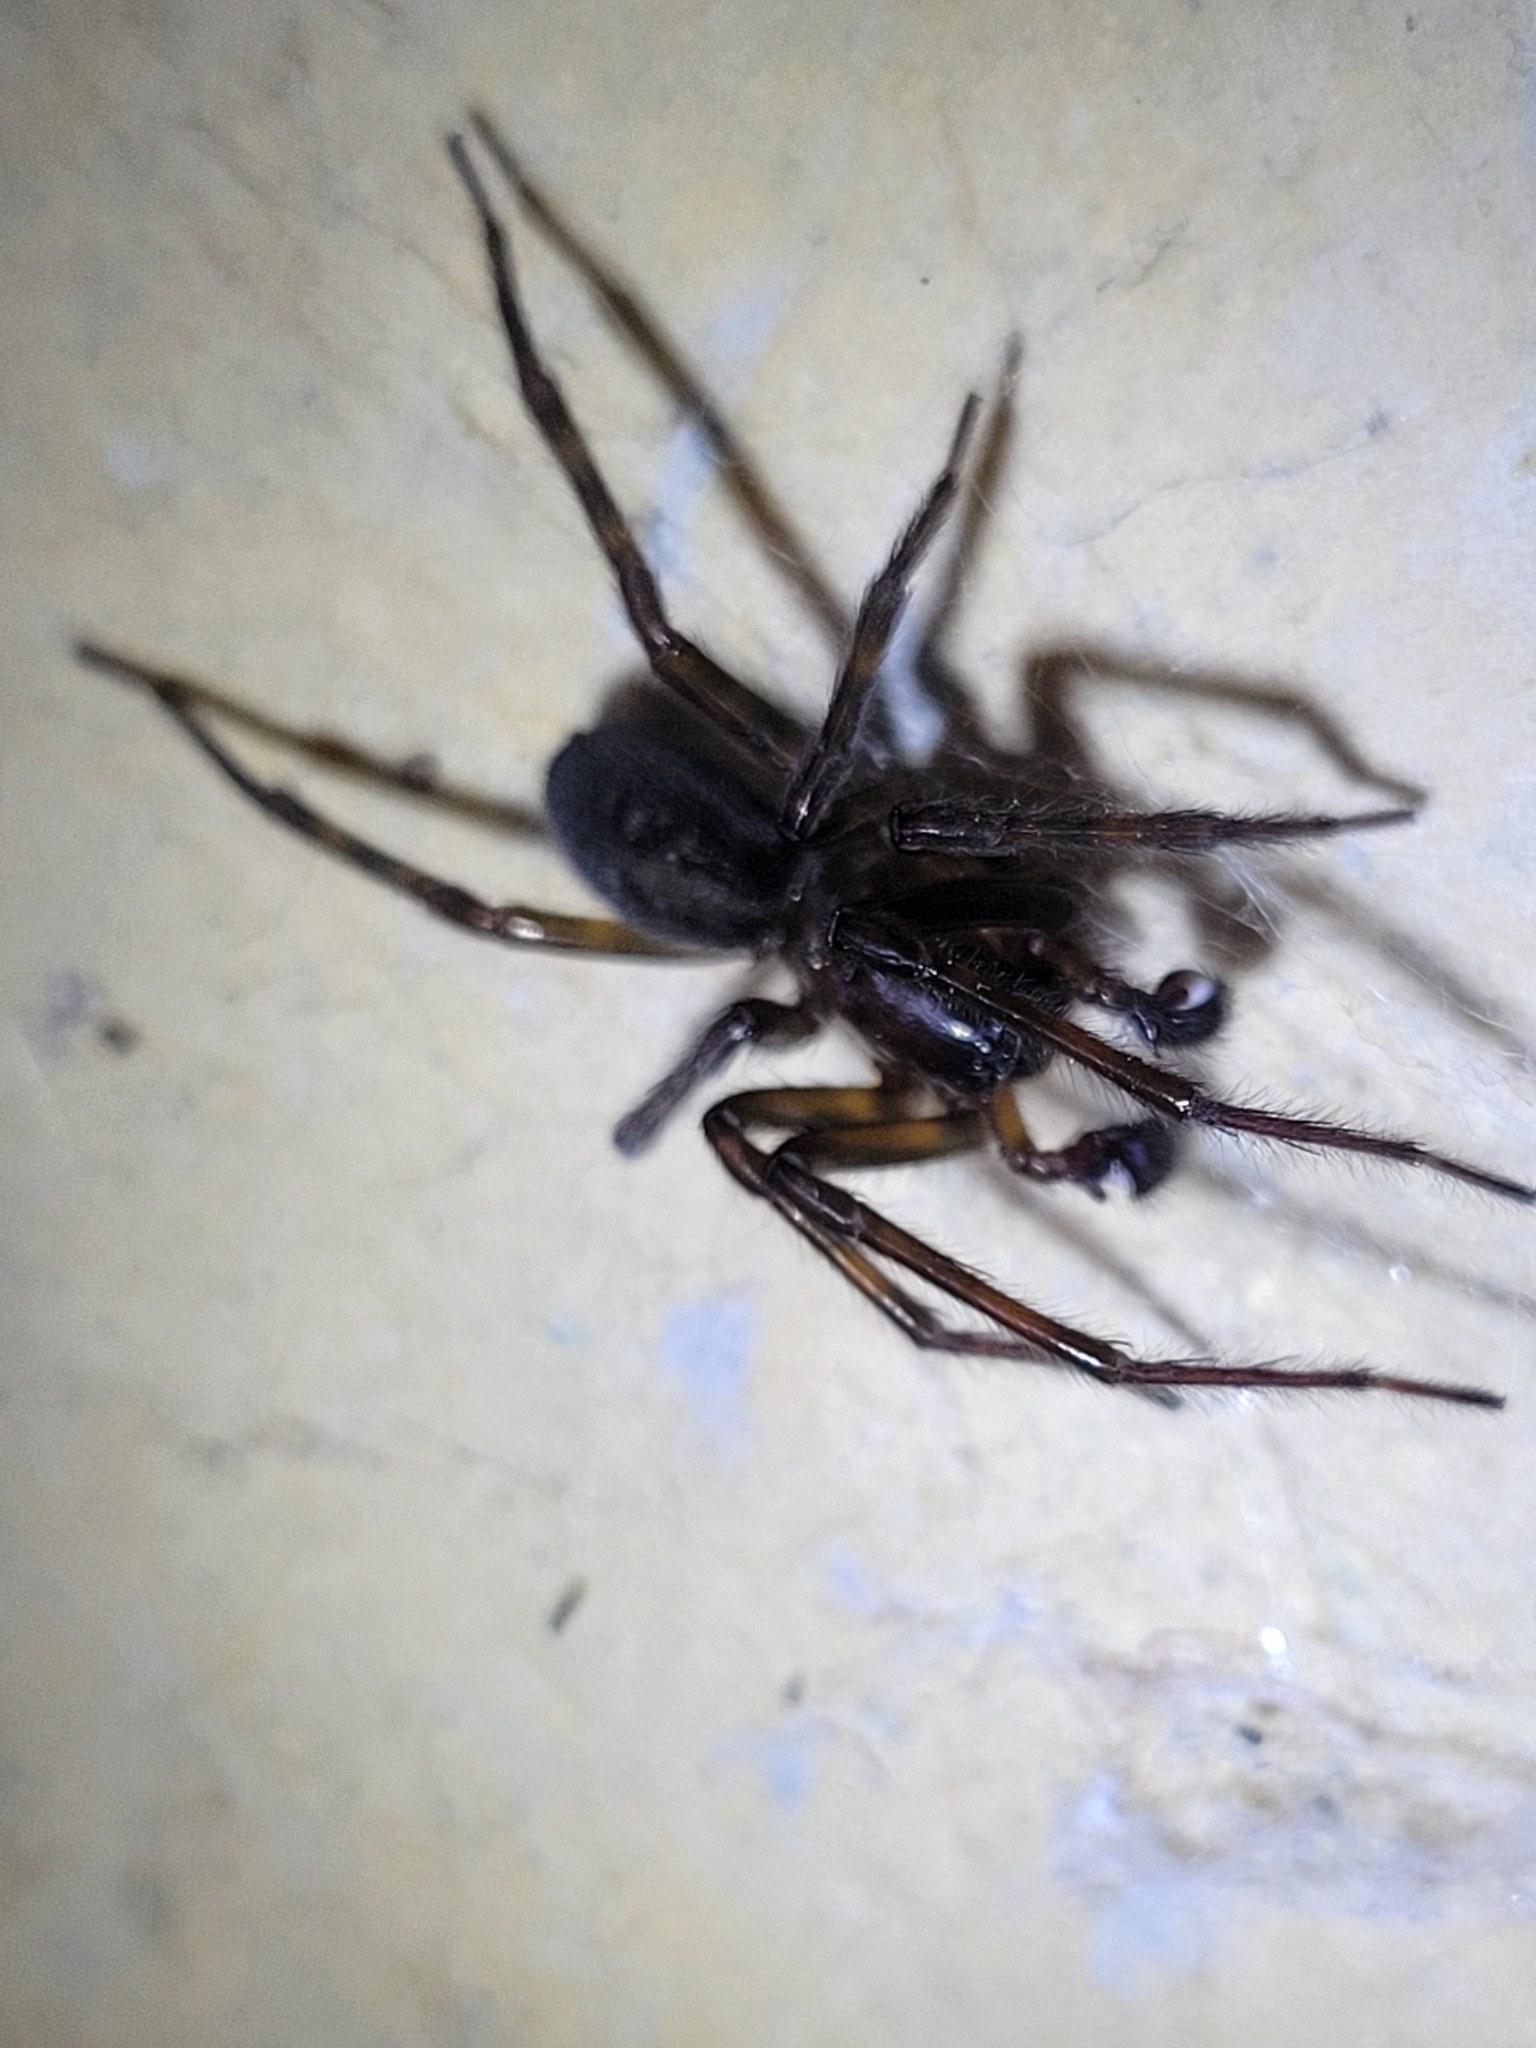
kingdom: Animalia
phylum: Arthropoda
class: Arachnida
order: Araneae
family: Amaurobiidae
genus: Amaurobius
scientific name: Amaurobius ferox
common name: Black laceweaver
